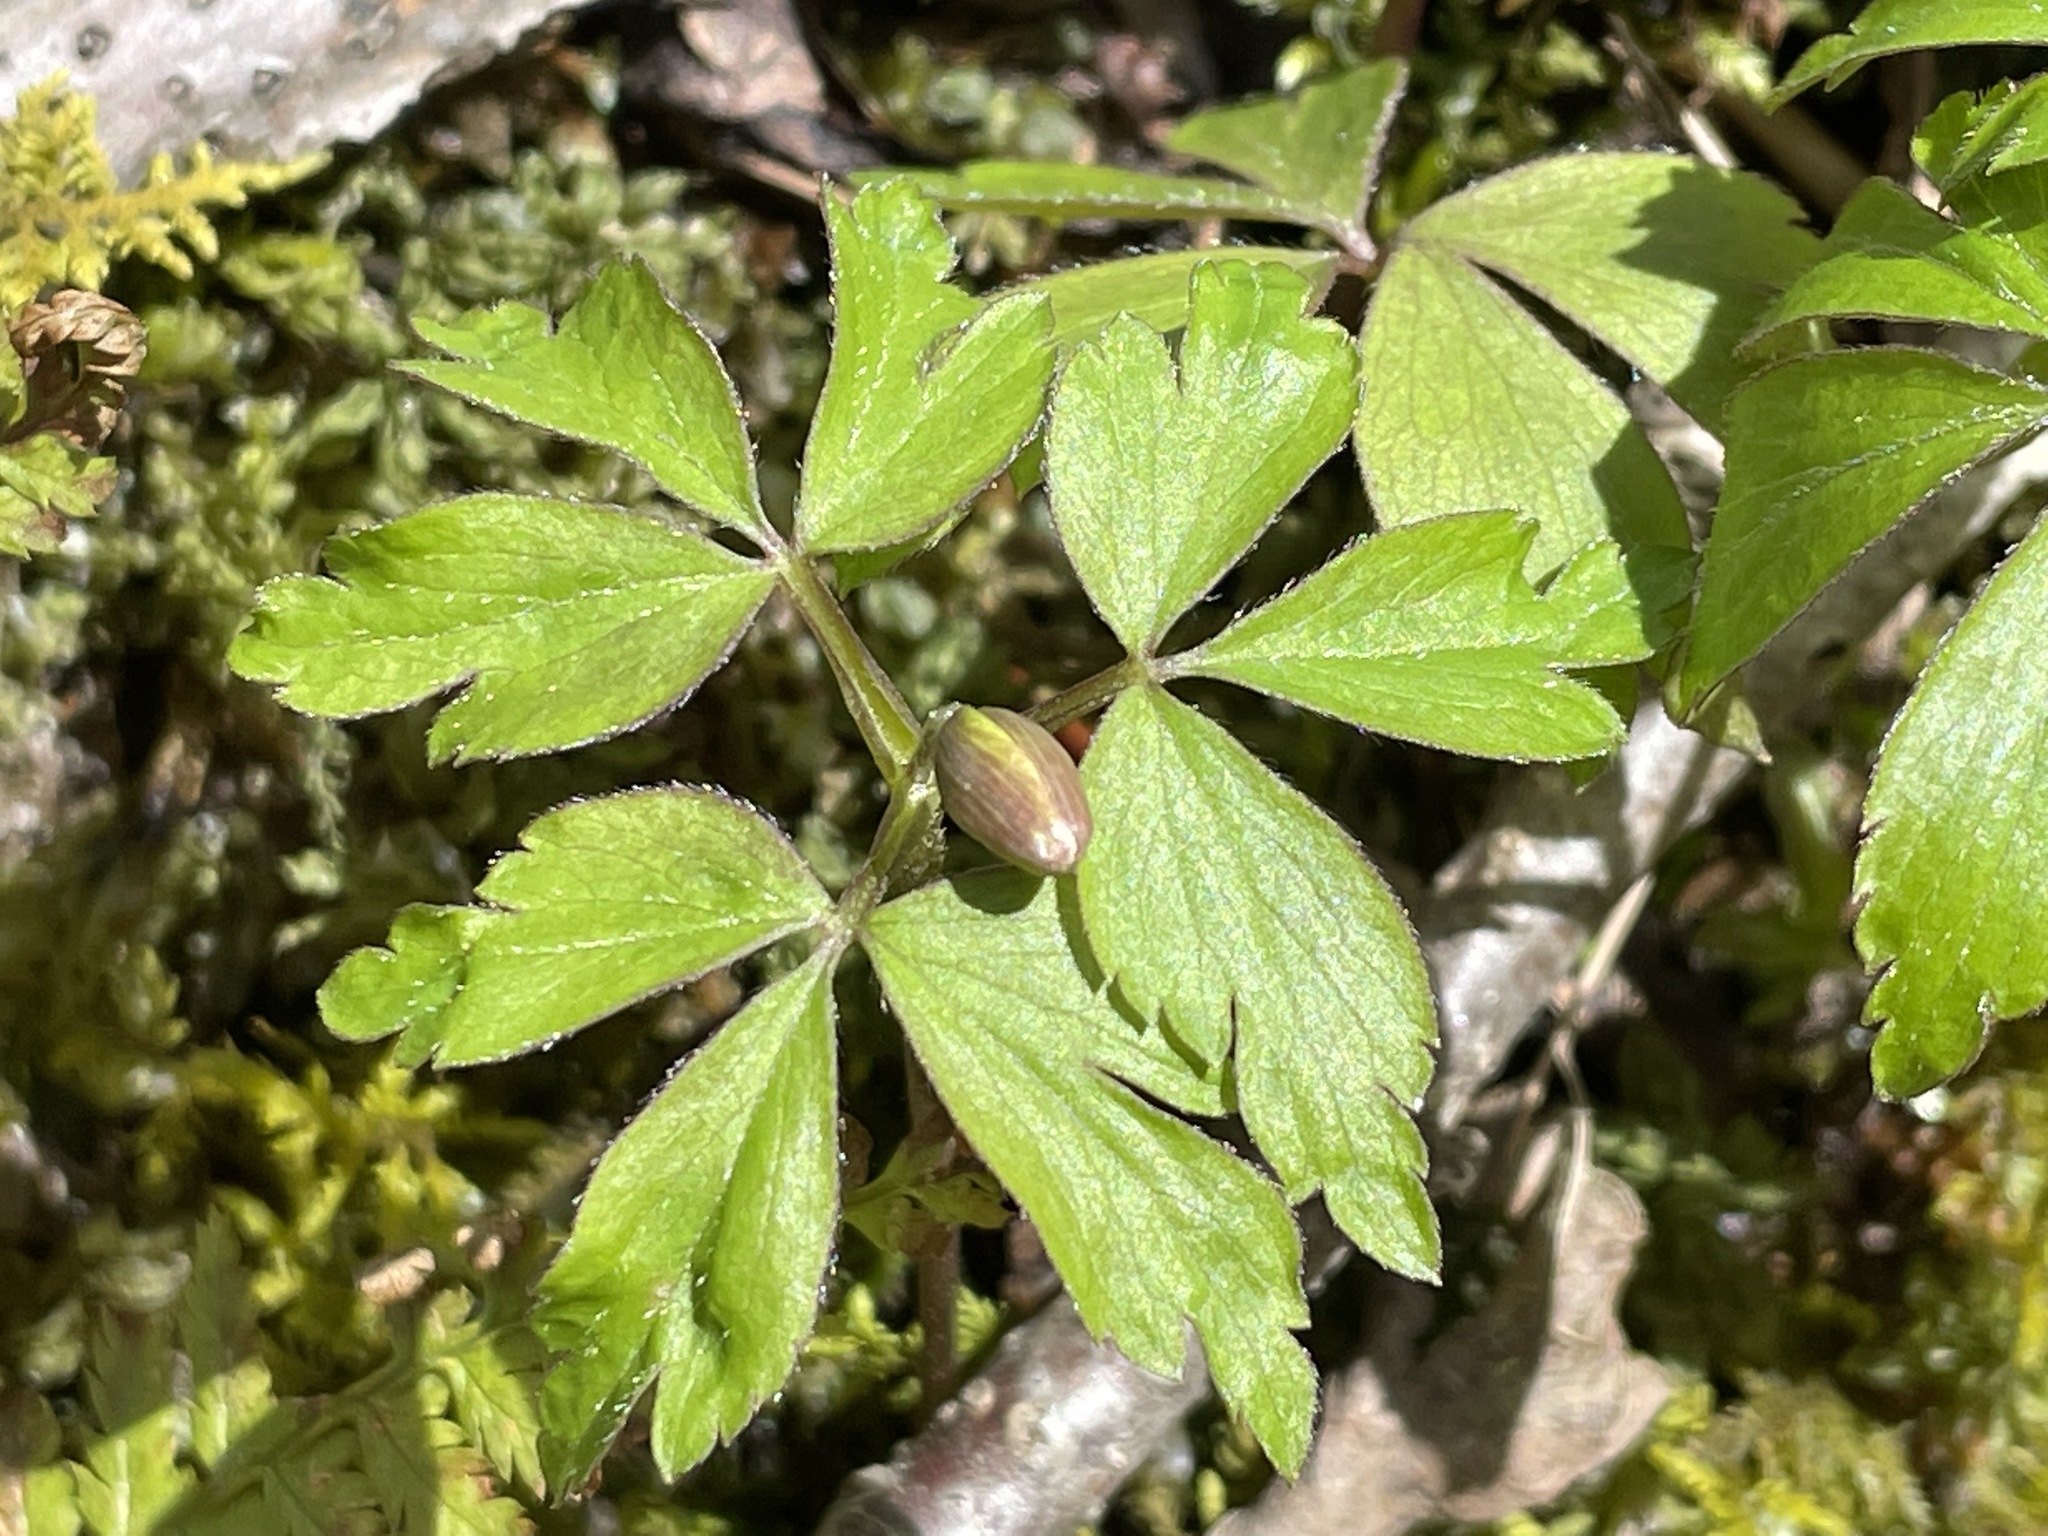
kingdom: Plantae
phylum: Tracheophyta
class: Magnoliopsida
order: Ranunculales
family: Ranunculaceae
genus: Anemone
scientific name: Anemone quinquefolia
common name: Wood anemone
